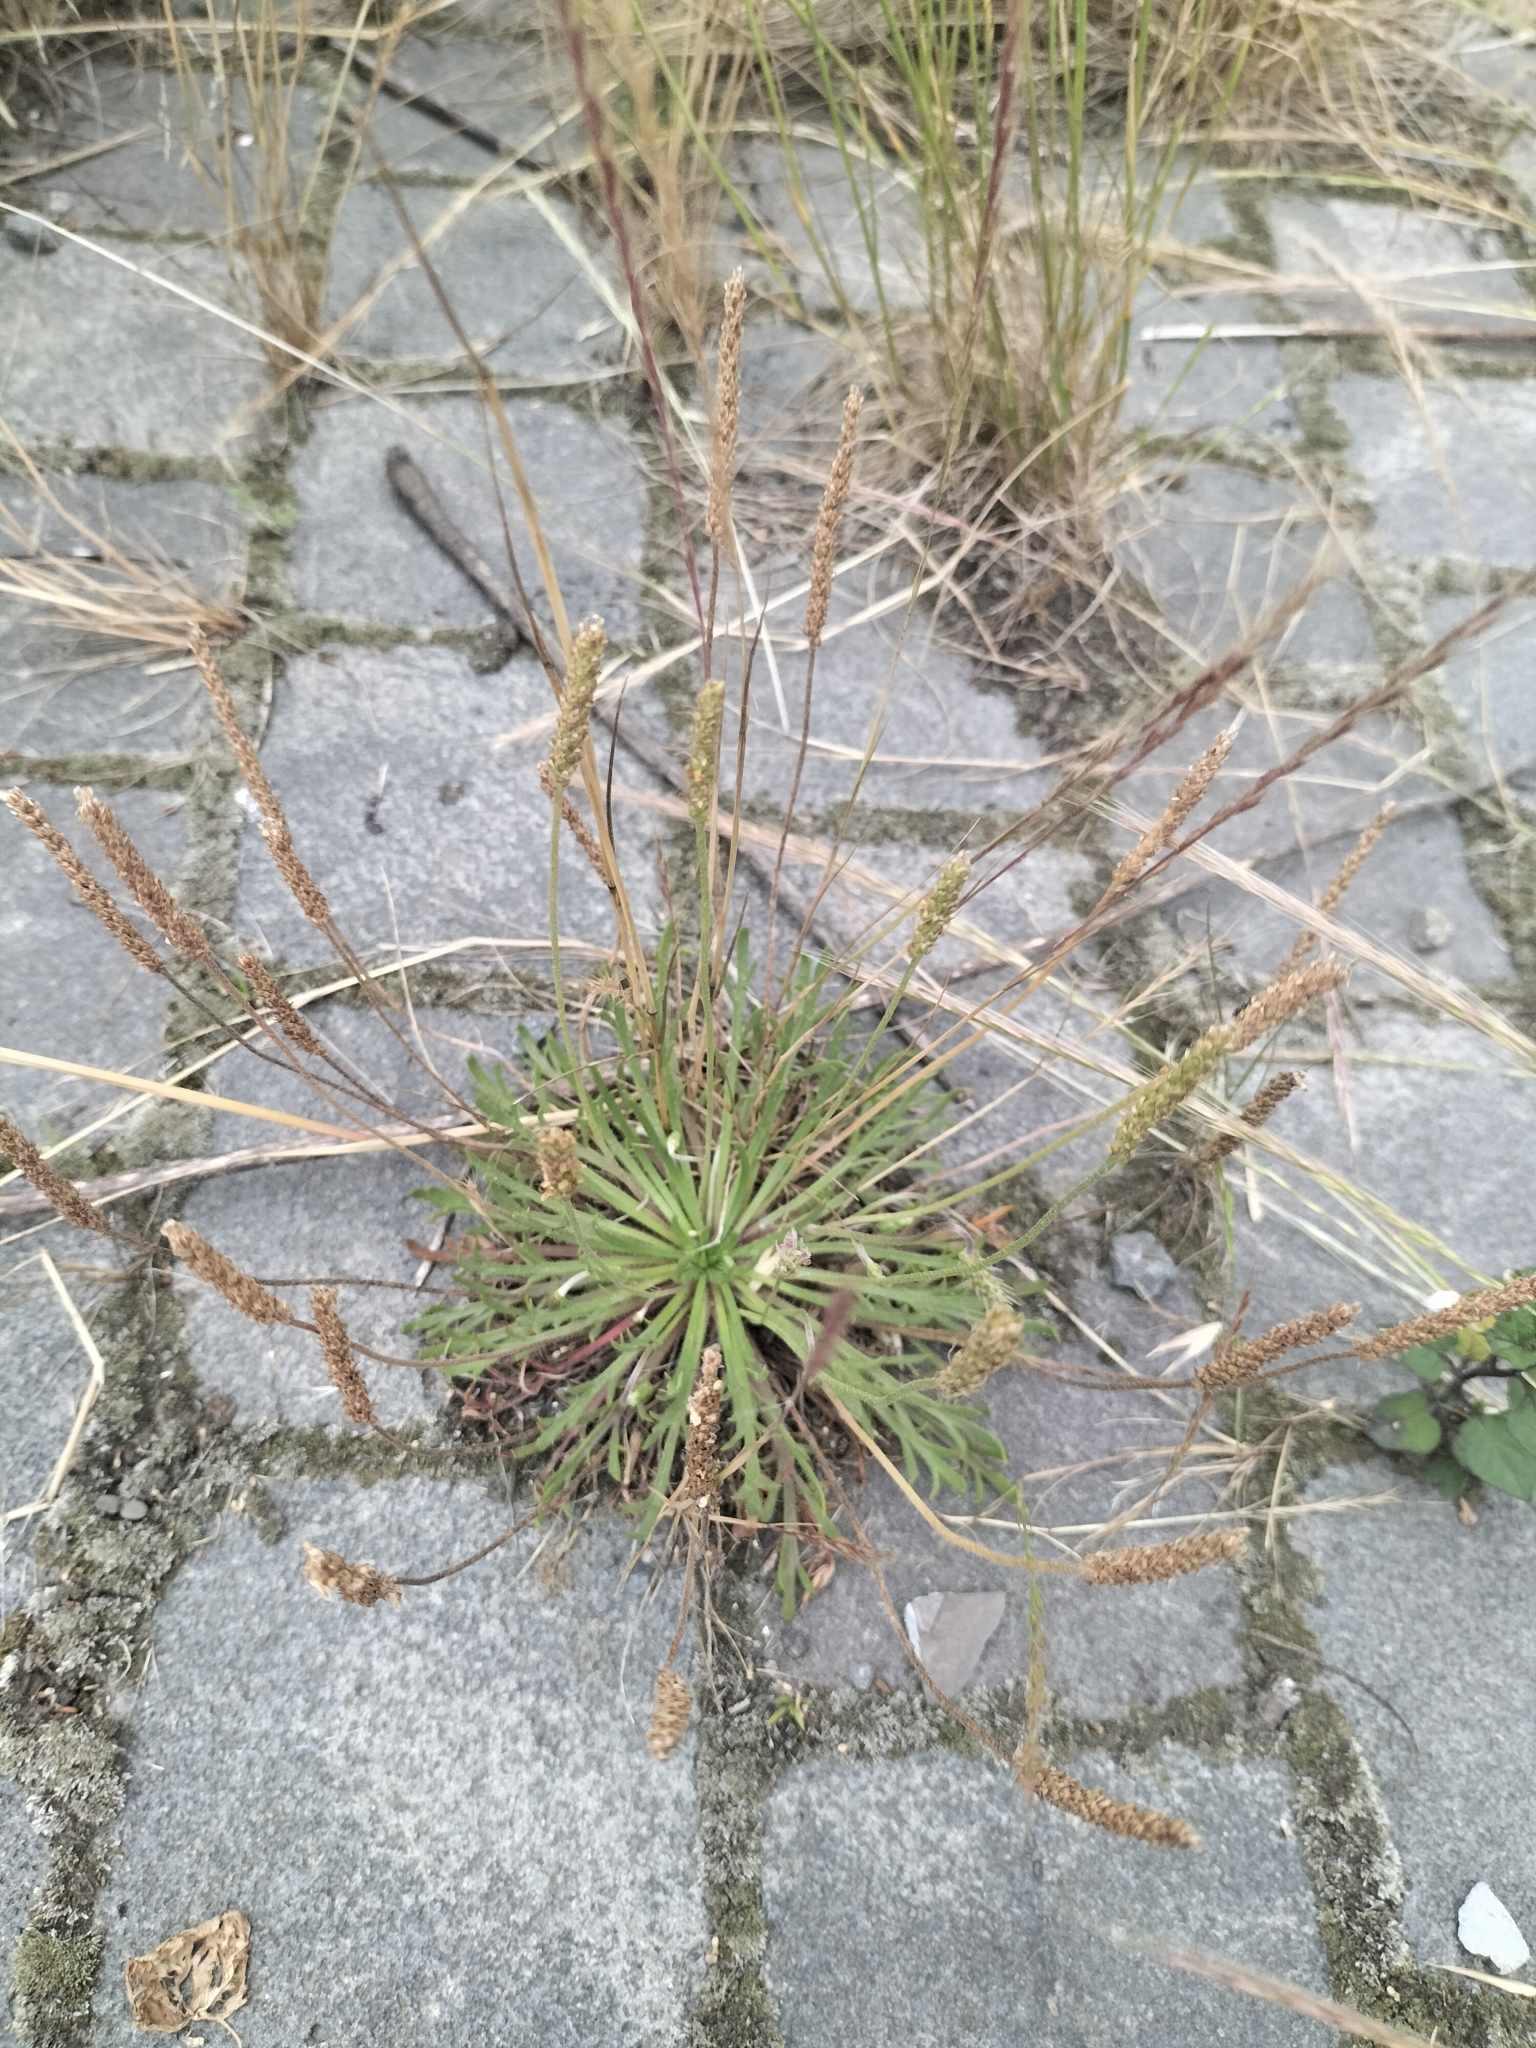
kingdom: Plantae
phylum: Tracheophyta
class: Magnoliopsida
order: Lamiales
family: Plantaginaceae
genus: Plantago
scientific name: Plantago coronopus
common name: Buck's-horn plantain
